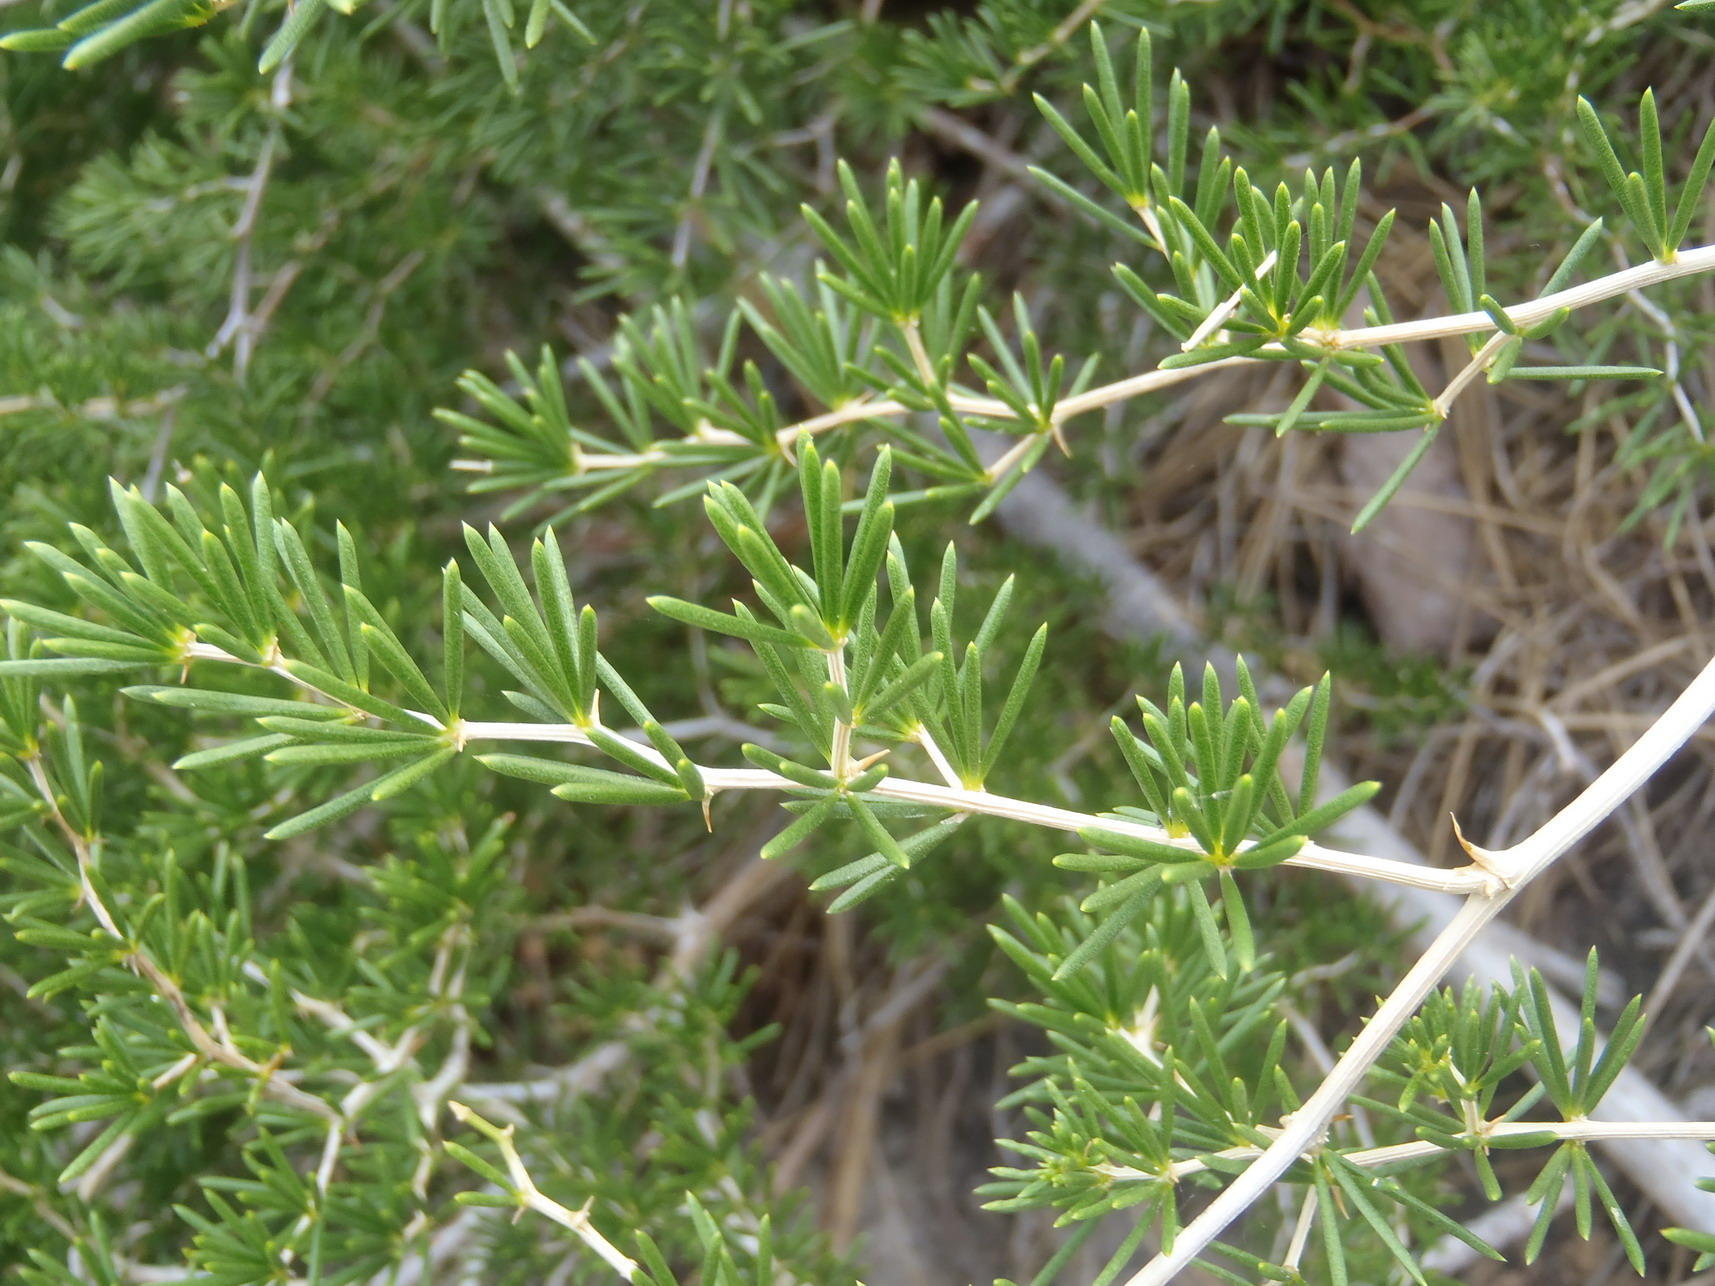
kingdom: Plantae
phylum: Tracheophyta
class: Liliopsida
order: Asparagales
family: Asparagaceae
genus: Asparagus
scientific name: Asparagus lignosus
